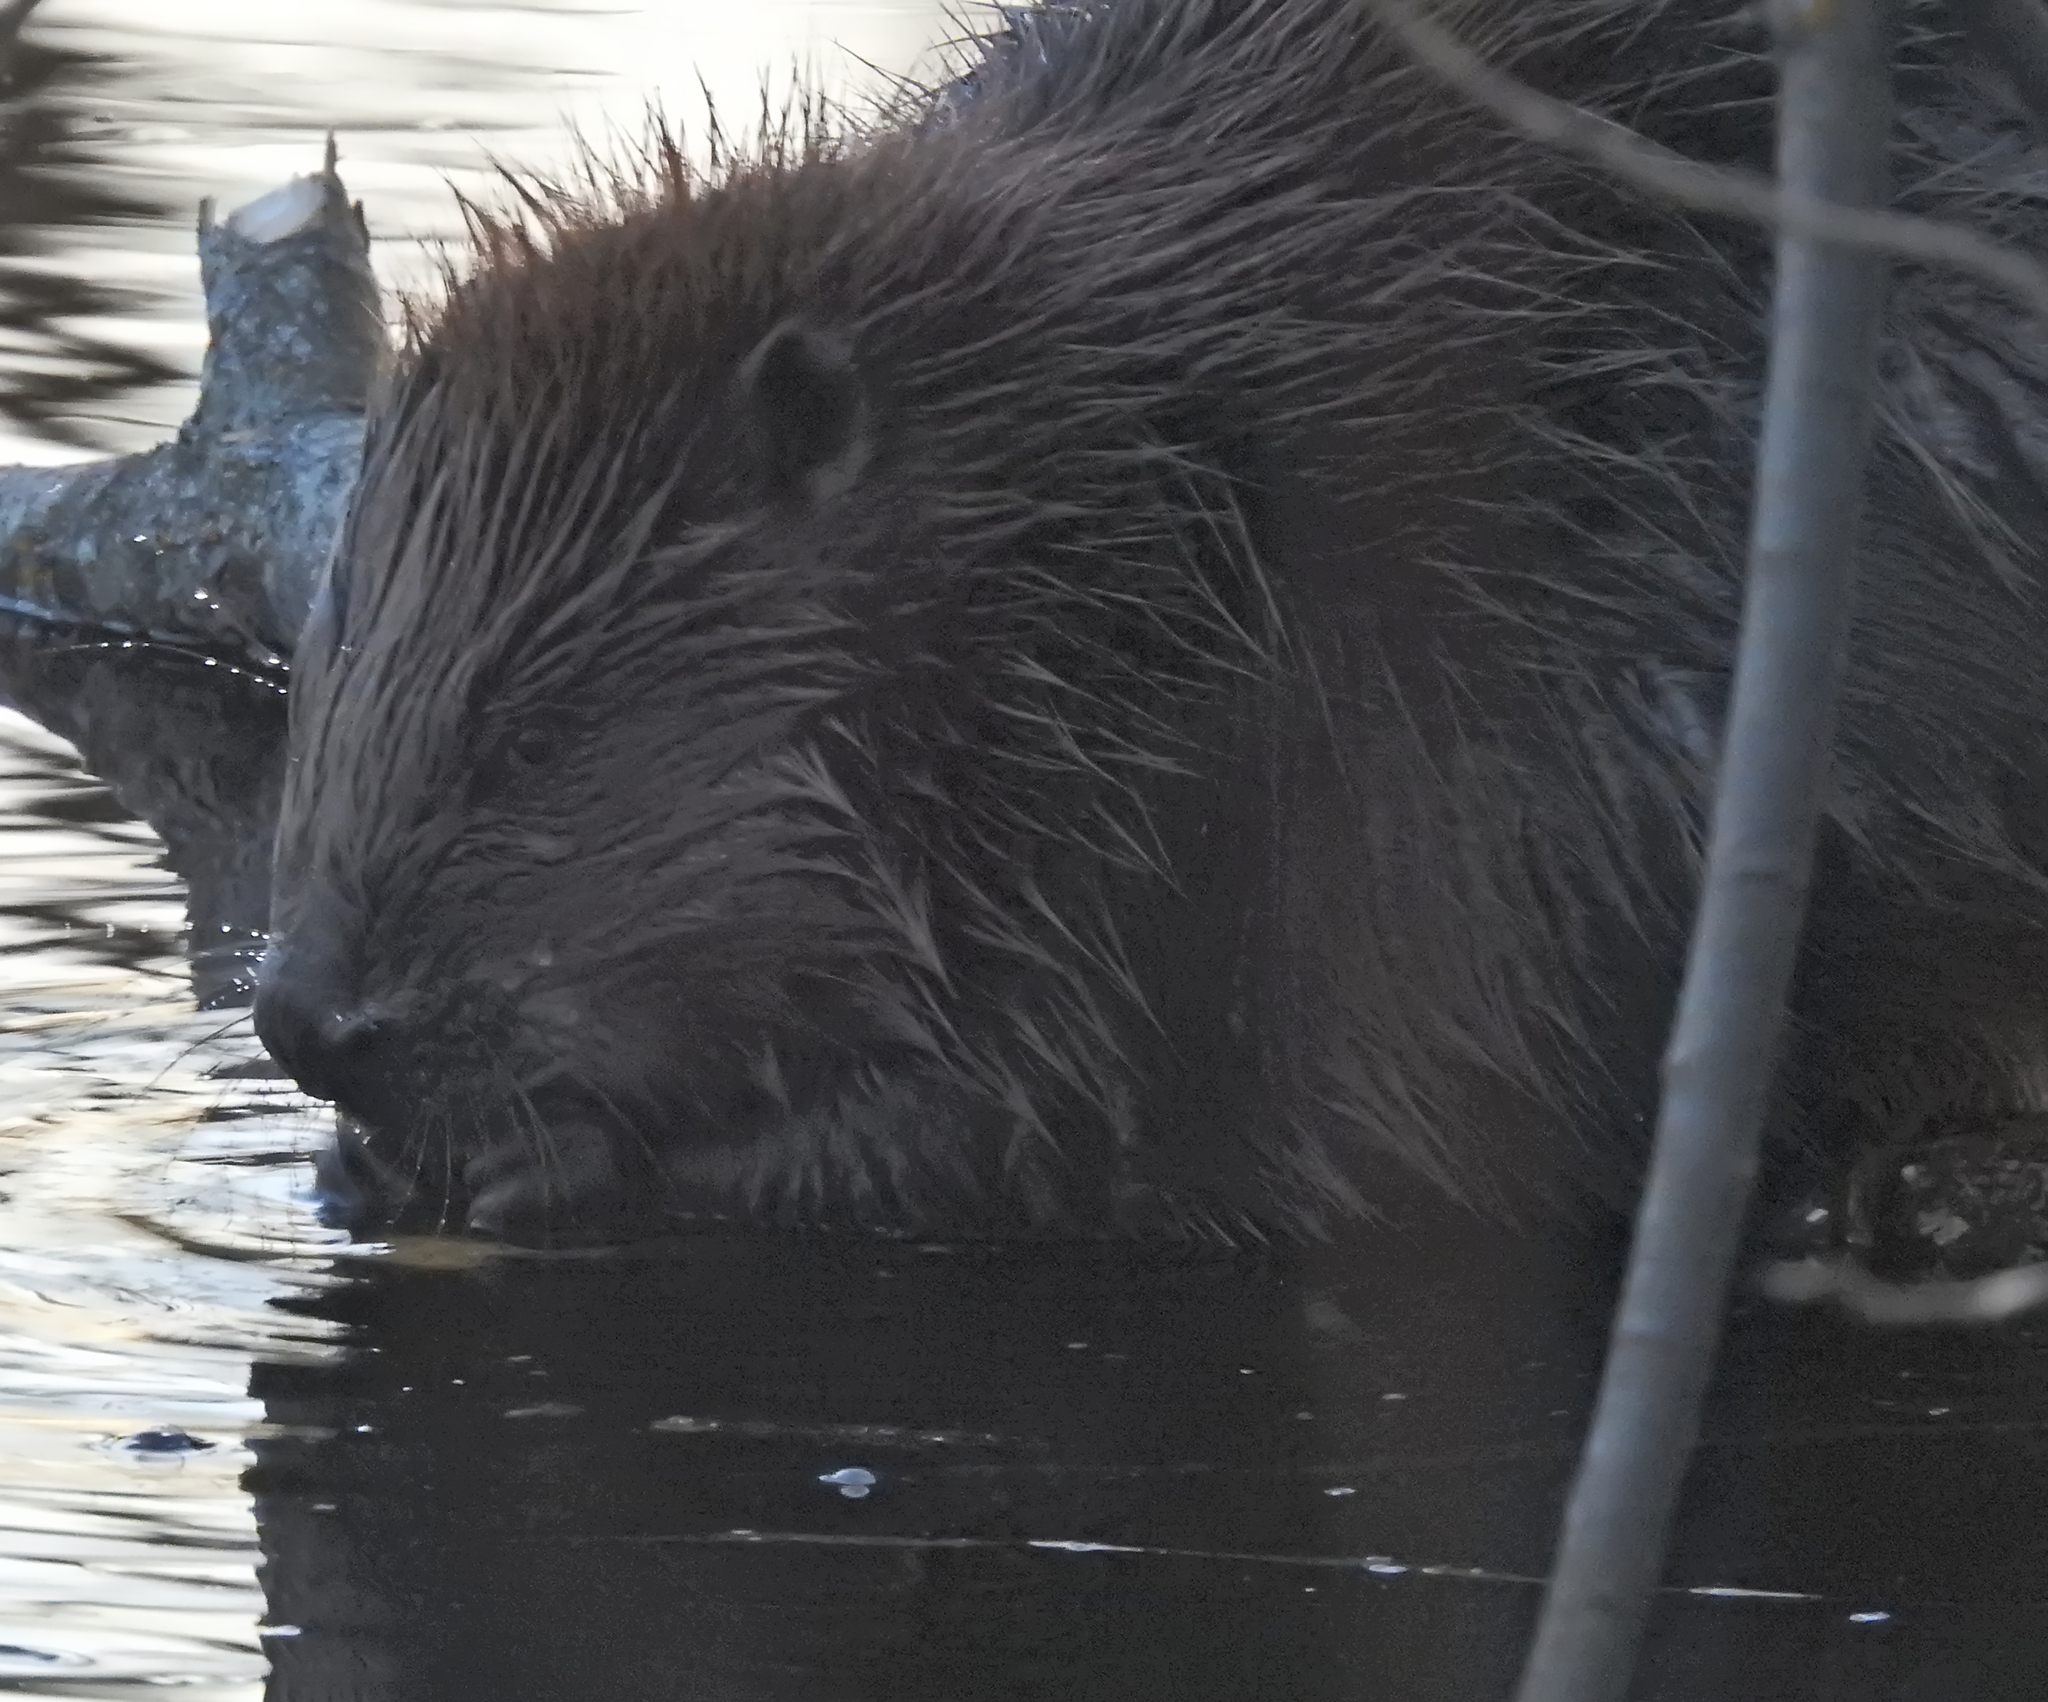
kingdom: Animalia
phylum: Chordata
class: Mammalia
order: Rodentia
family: Castoridae
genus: Castor
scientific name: Castor fiber
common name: Eurasian beaver
